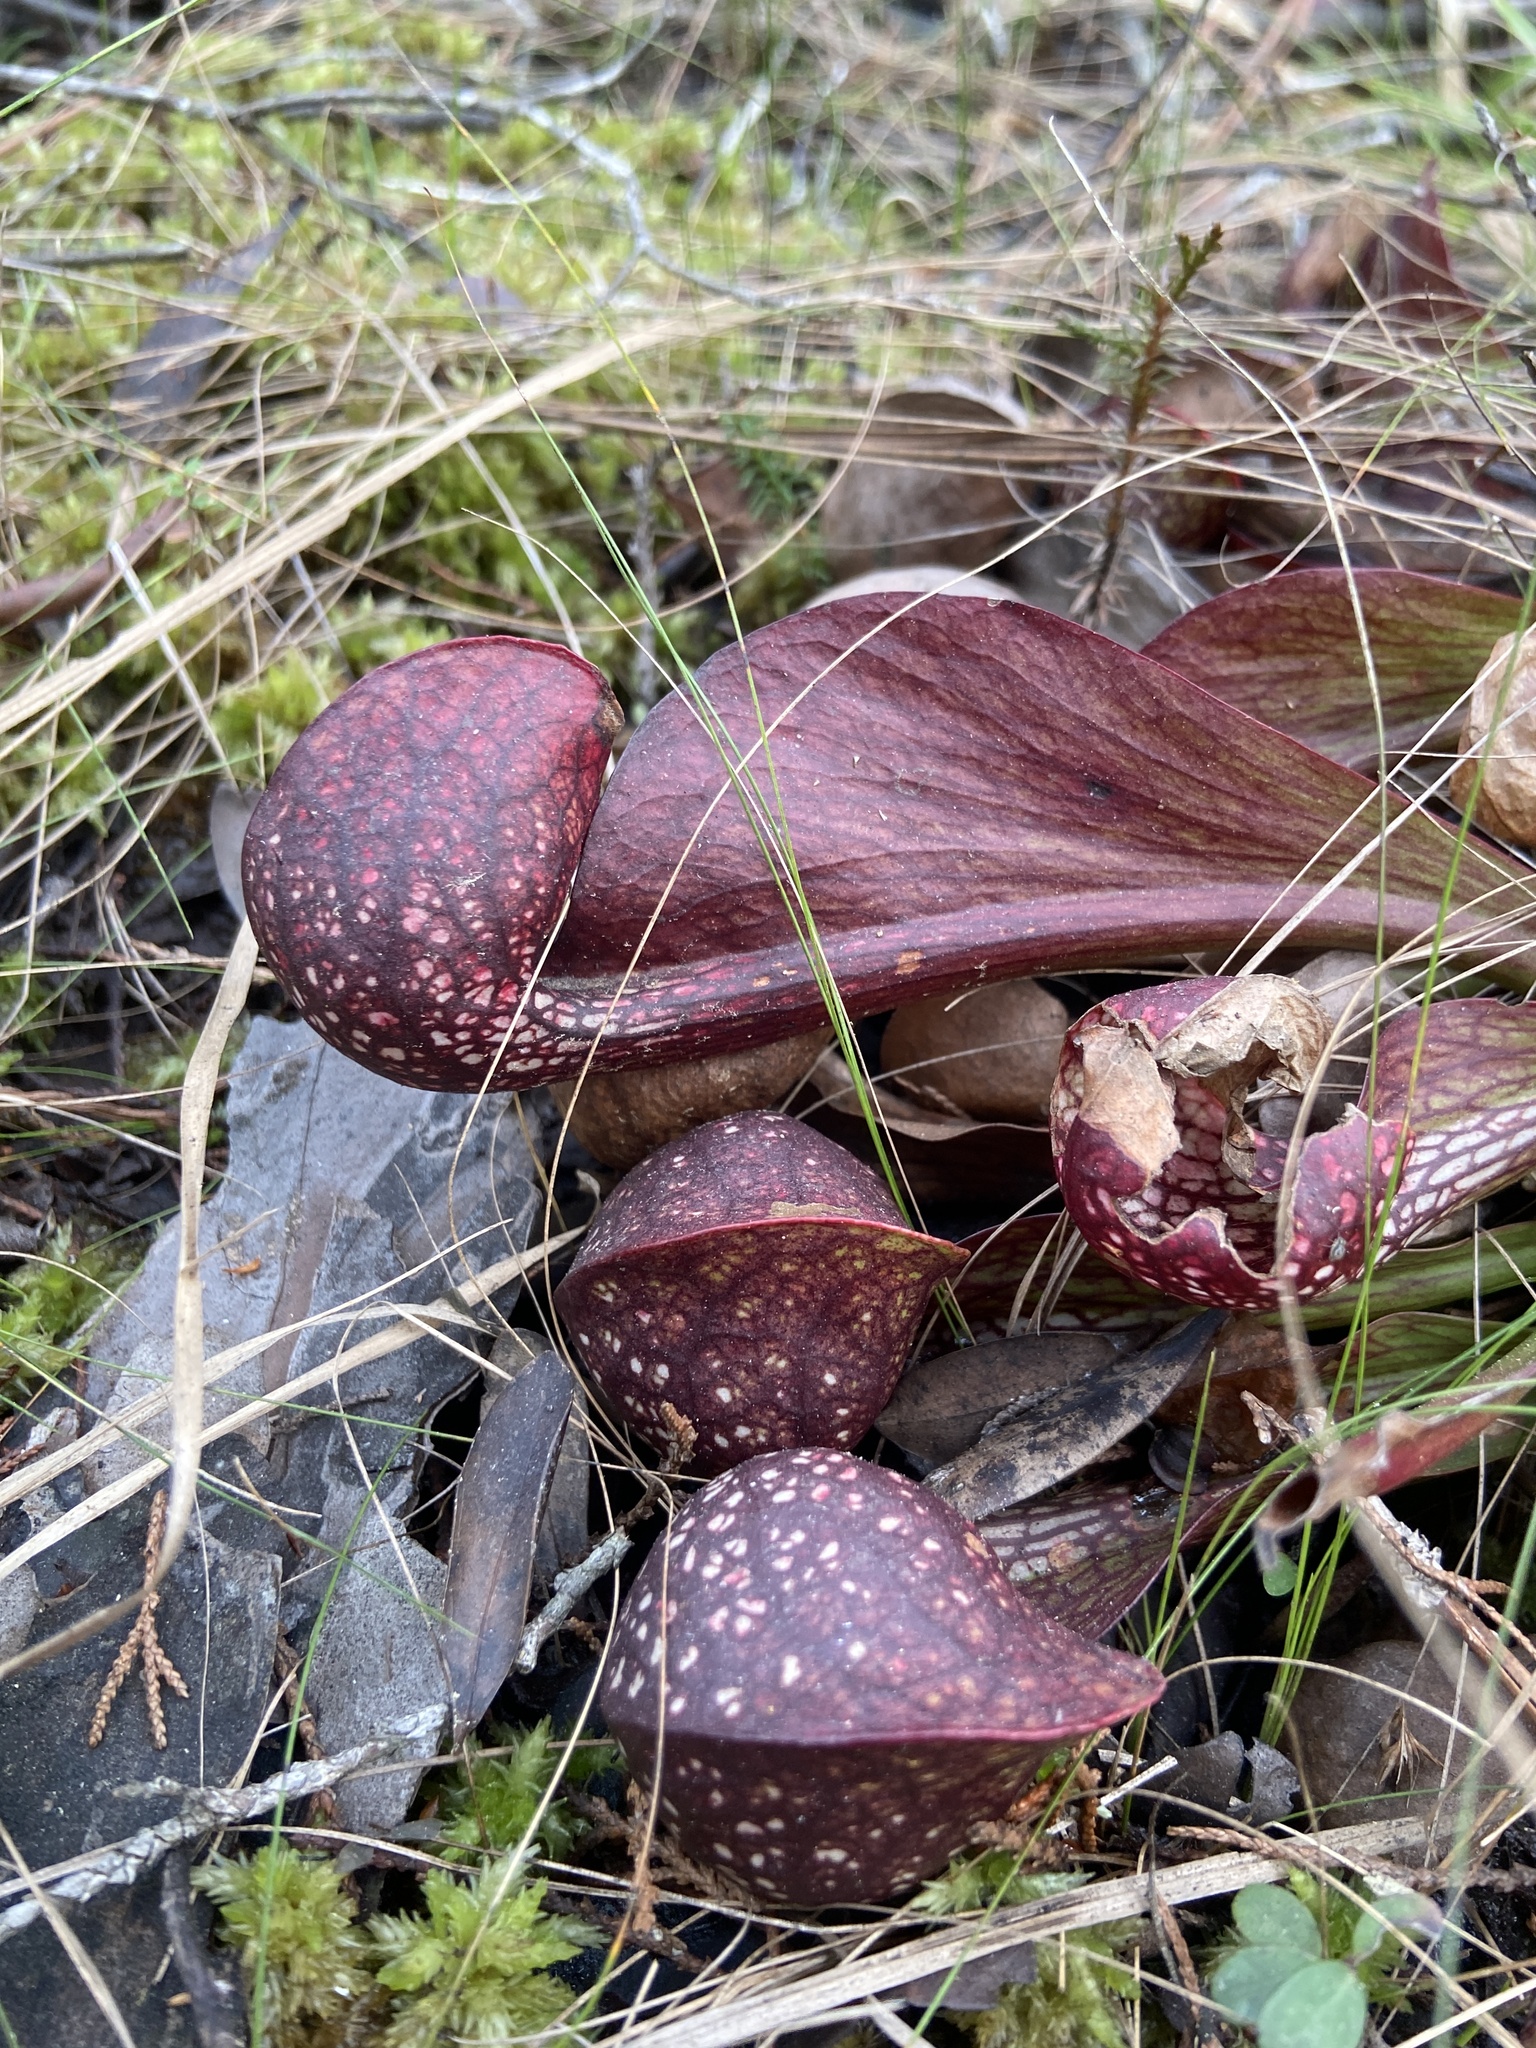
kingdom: Plantae
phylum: Tracheophyta
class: Magnoliopsida
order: Ericales
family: Sarraceniaceae
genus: Sarracenia
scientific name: Sarracenia psittacina
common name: Parrot pitcherplant
